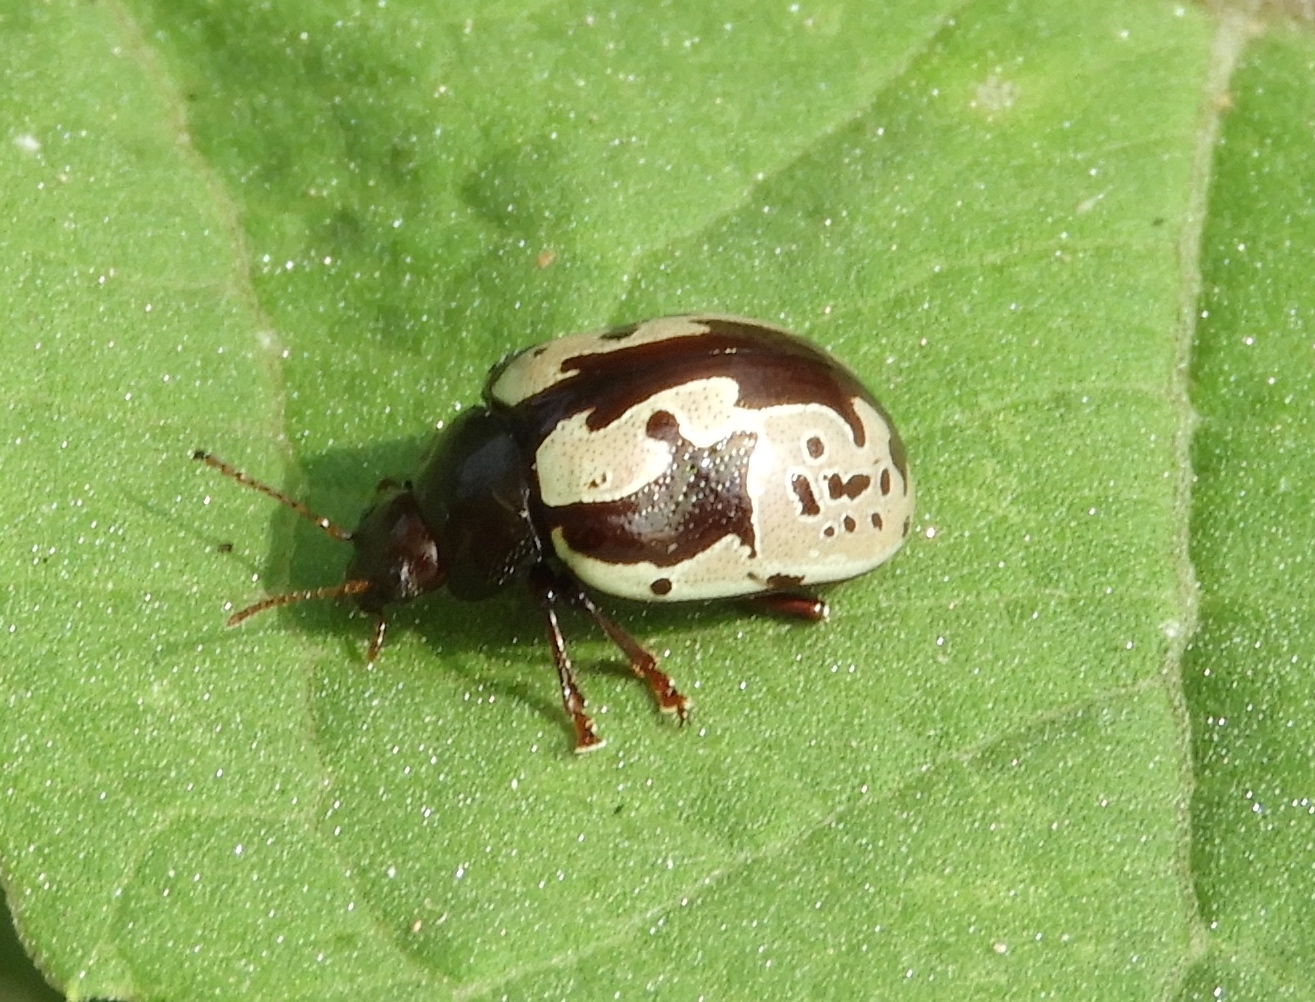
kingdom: Animalia
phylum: Arthropoda
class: Insecta
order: Coleoptera
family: Chrysomelidae
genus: Calligrapha
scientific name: Calligrapha intermedia
